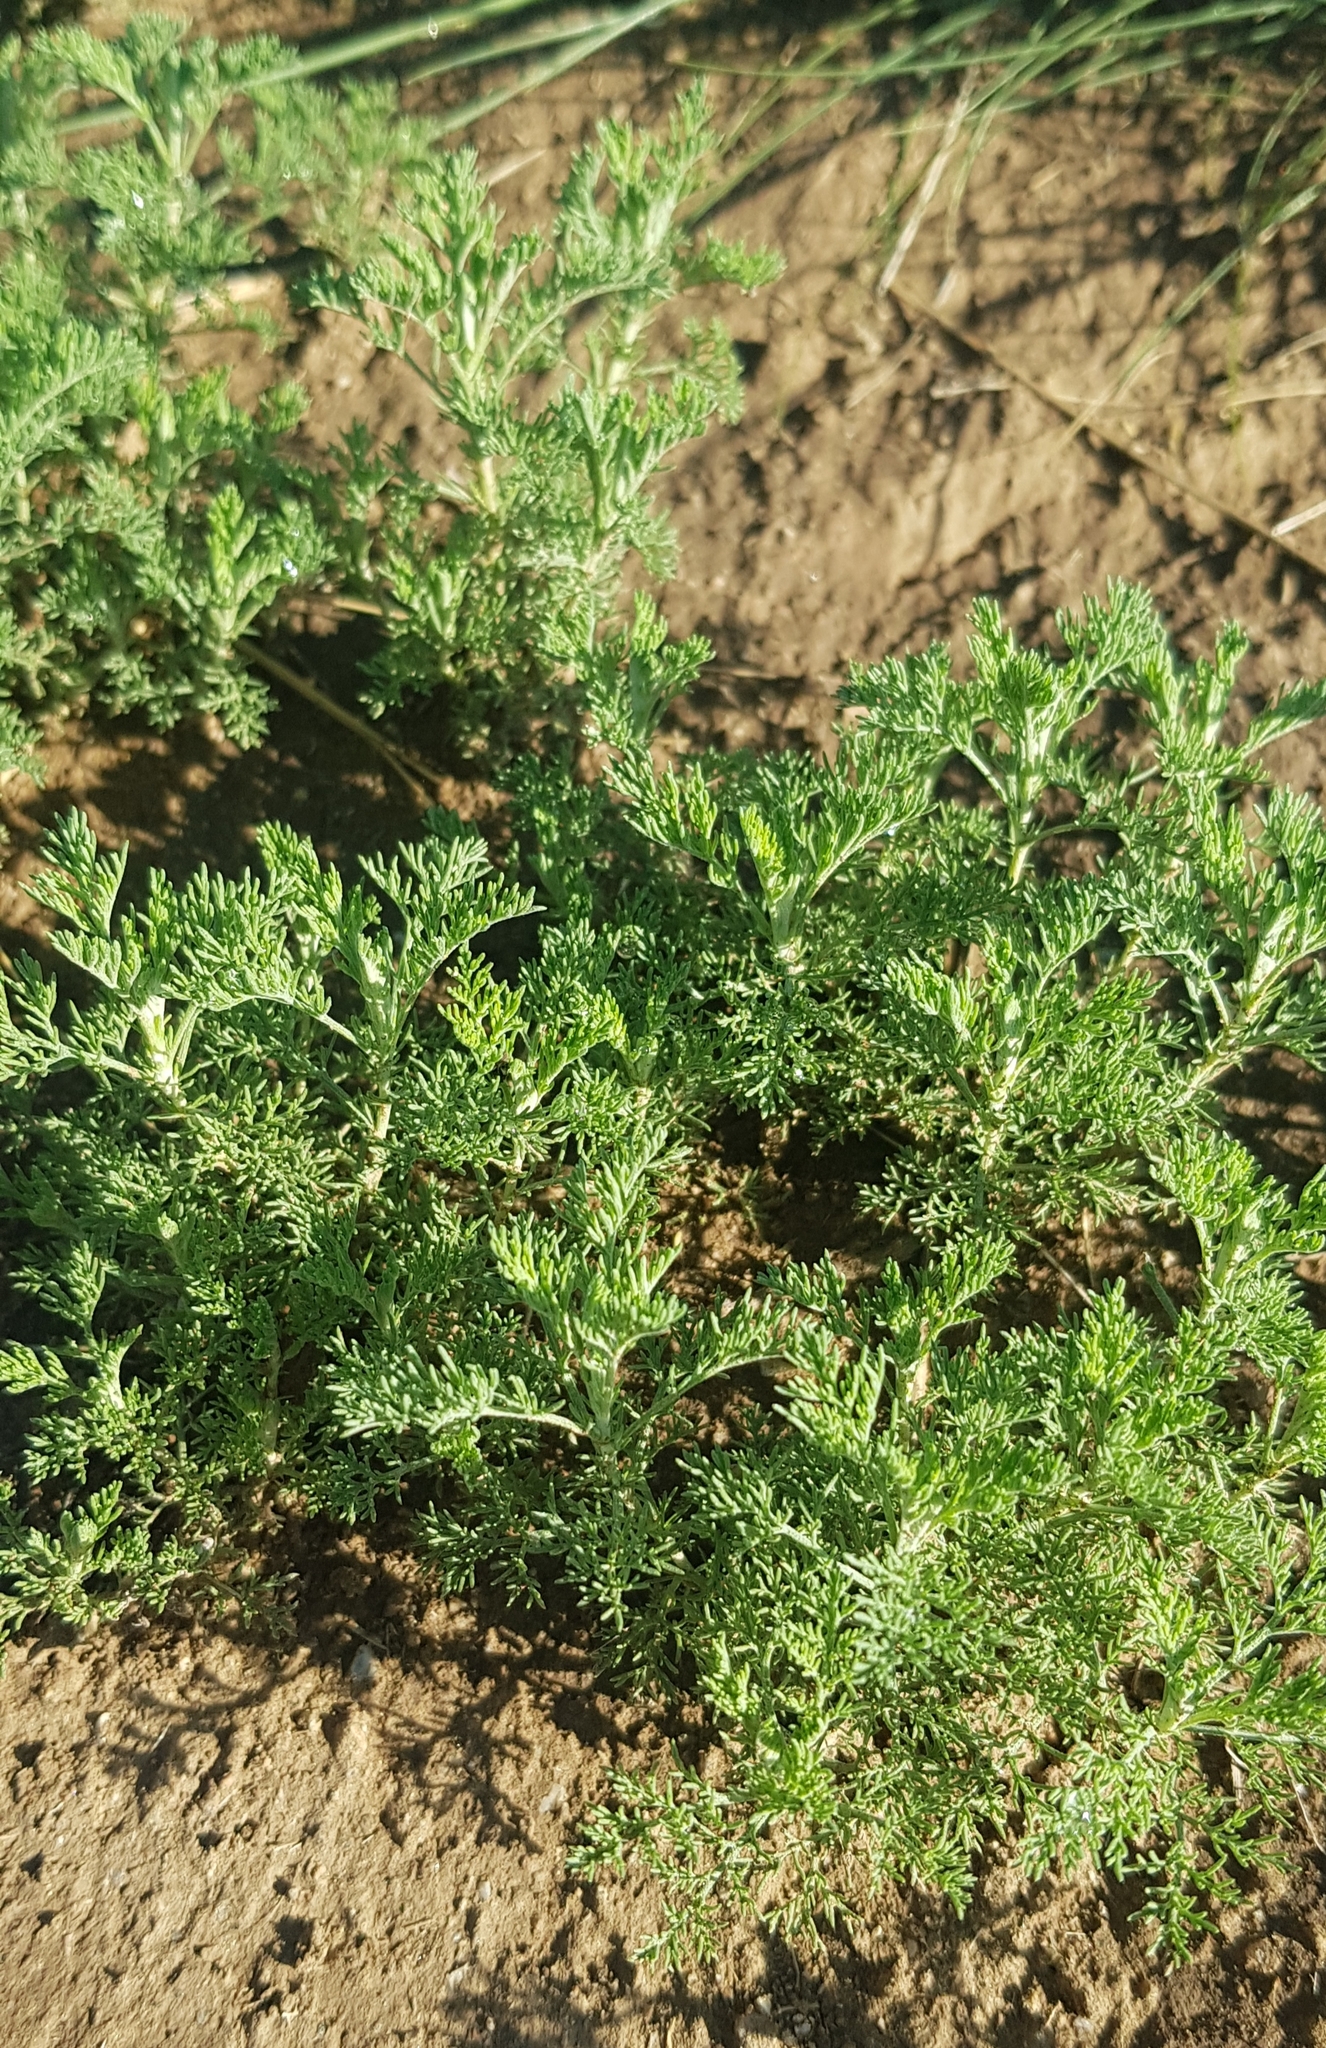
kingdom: Plantae
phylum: Tracheophyta
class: Magnoliopsida
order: Asterales
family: Asteraceae
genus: Artemisia
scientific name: Artemisia adamsii
